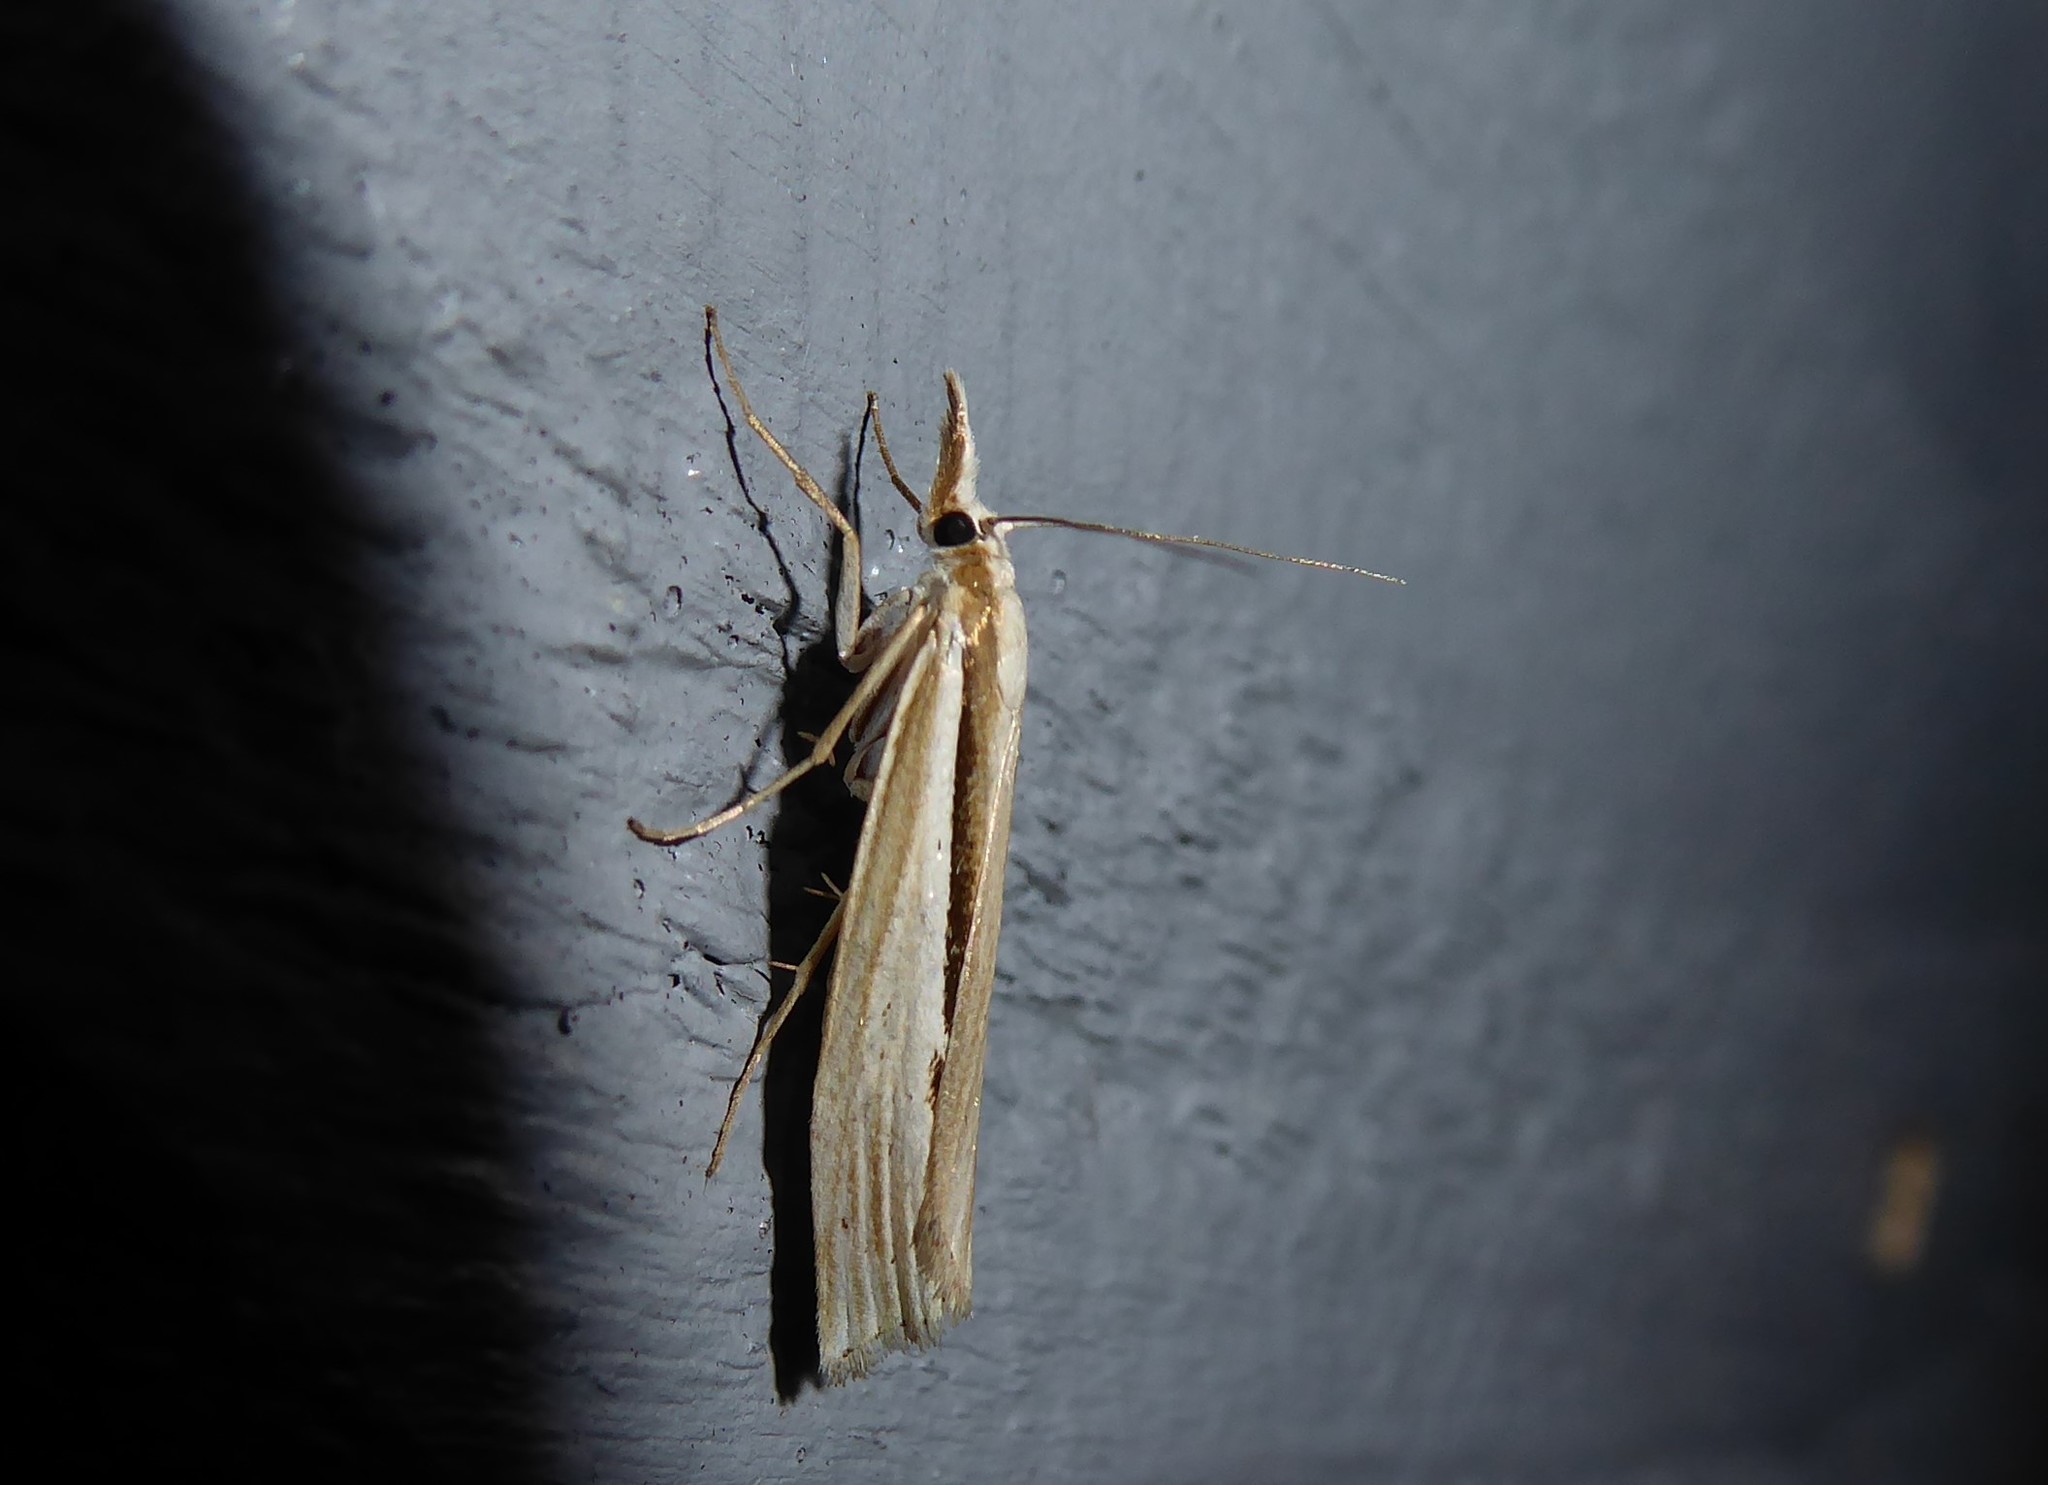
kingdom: Animalia
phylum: Arthropoda
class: Insecta
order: Lepidoptera
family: Crambidae
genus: Orocrambus
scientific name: Orocrambus ramosellus
